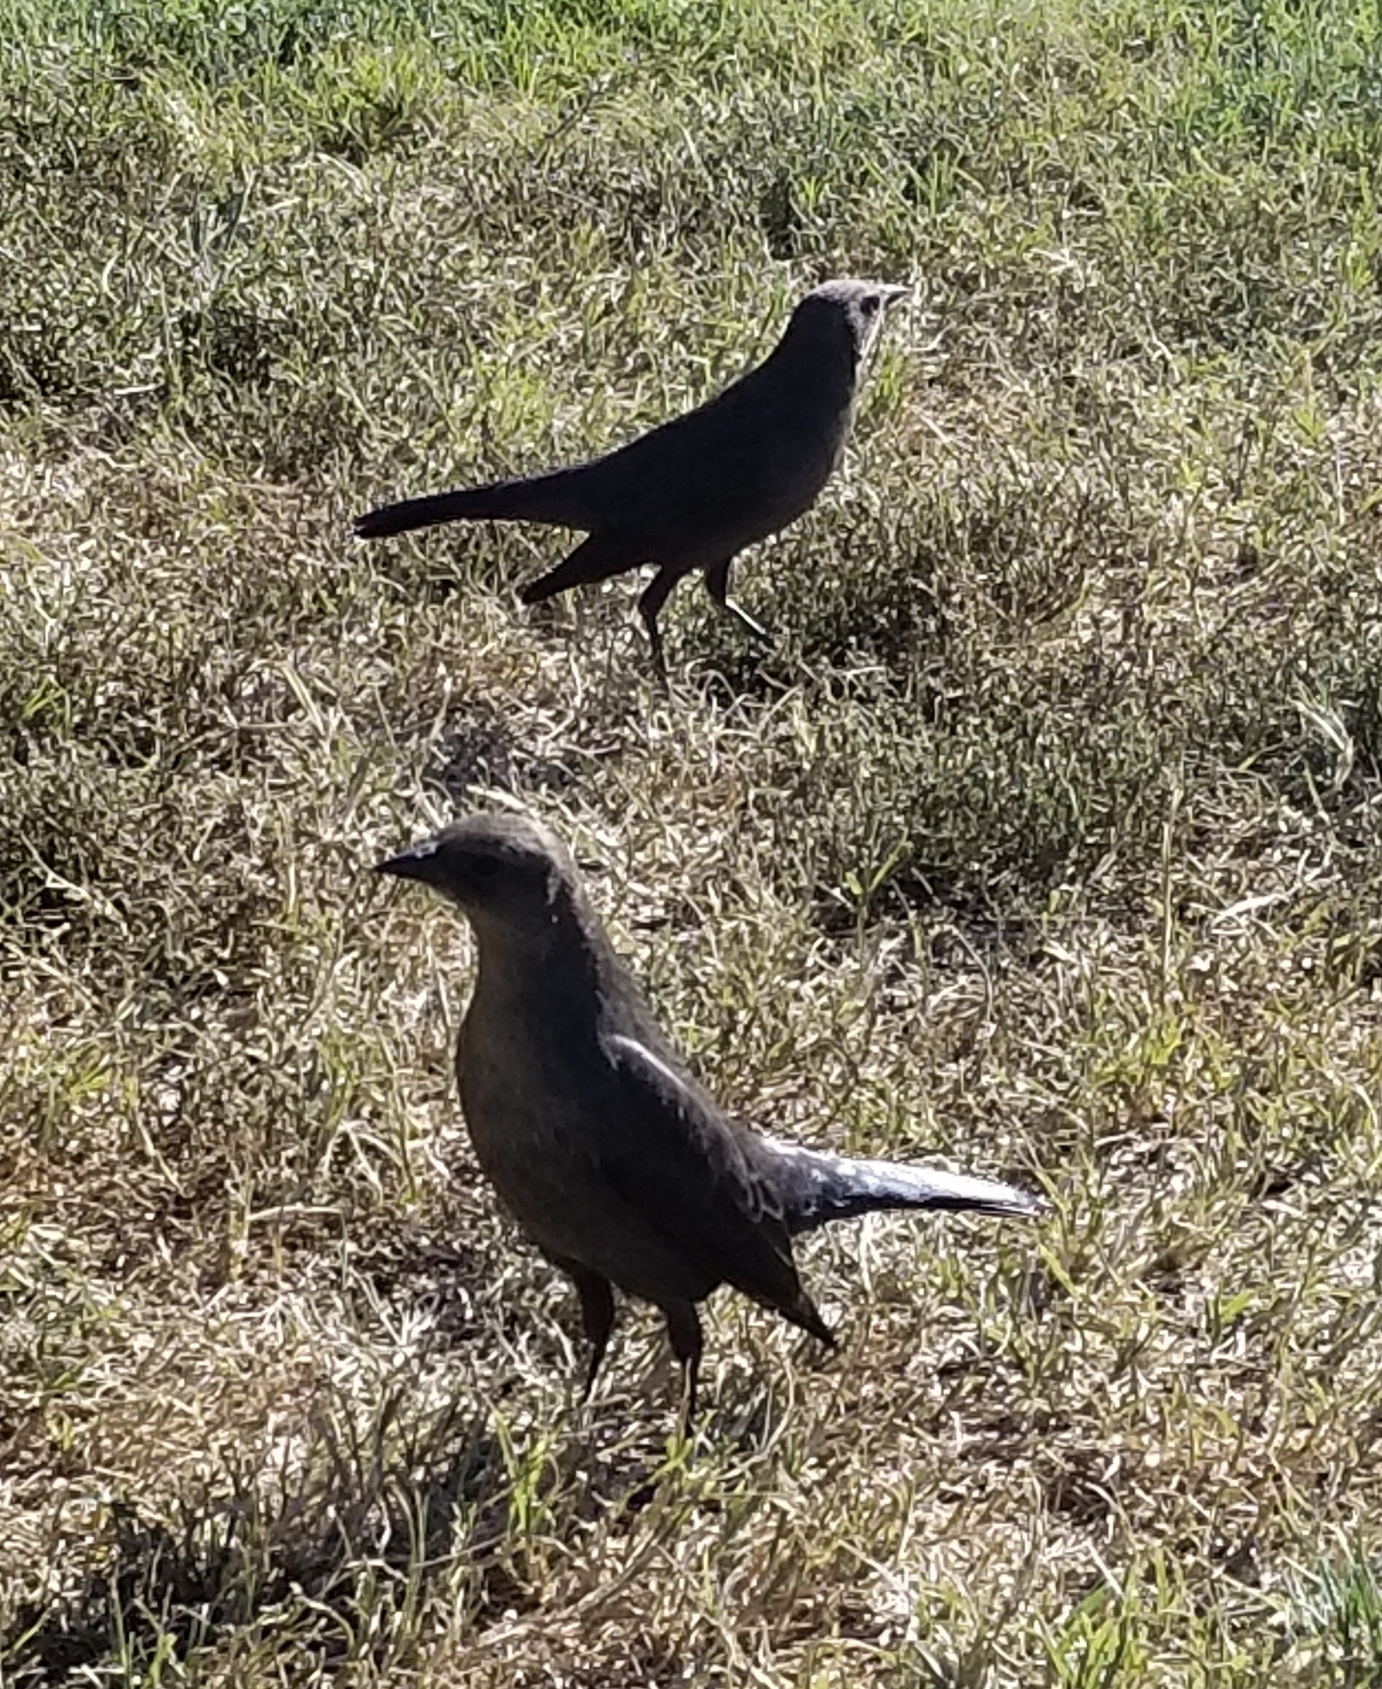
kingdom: Animalia
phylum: Chordata
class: Aves
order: Passeriformes
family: Icteridae
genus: Euphagus
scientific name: Euphagus cyanocephalus
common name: Brewer's blackbird
